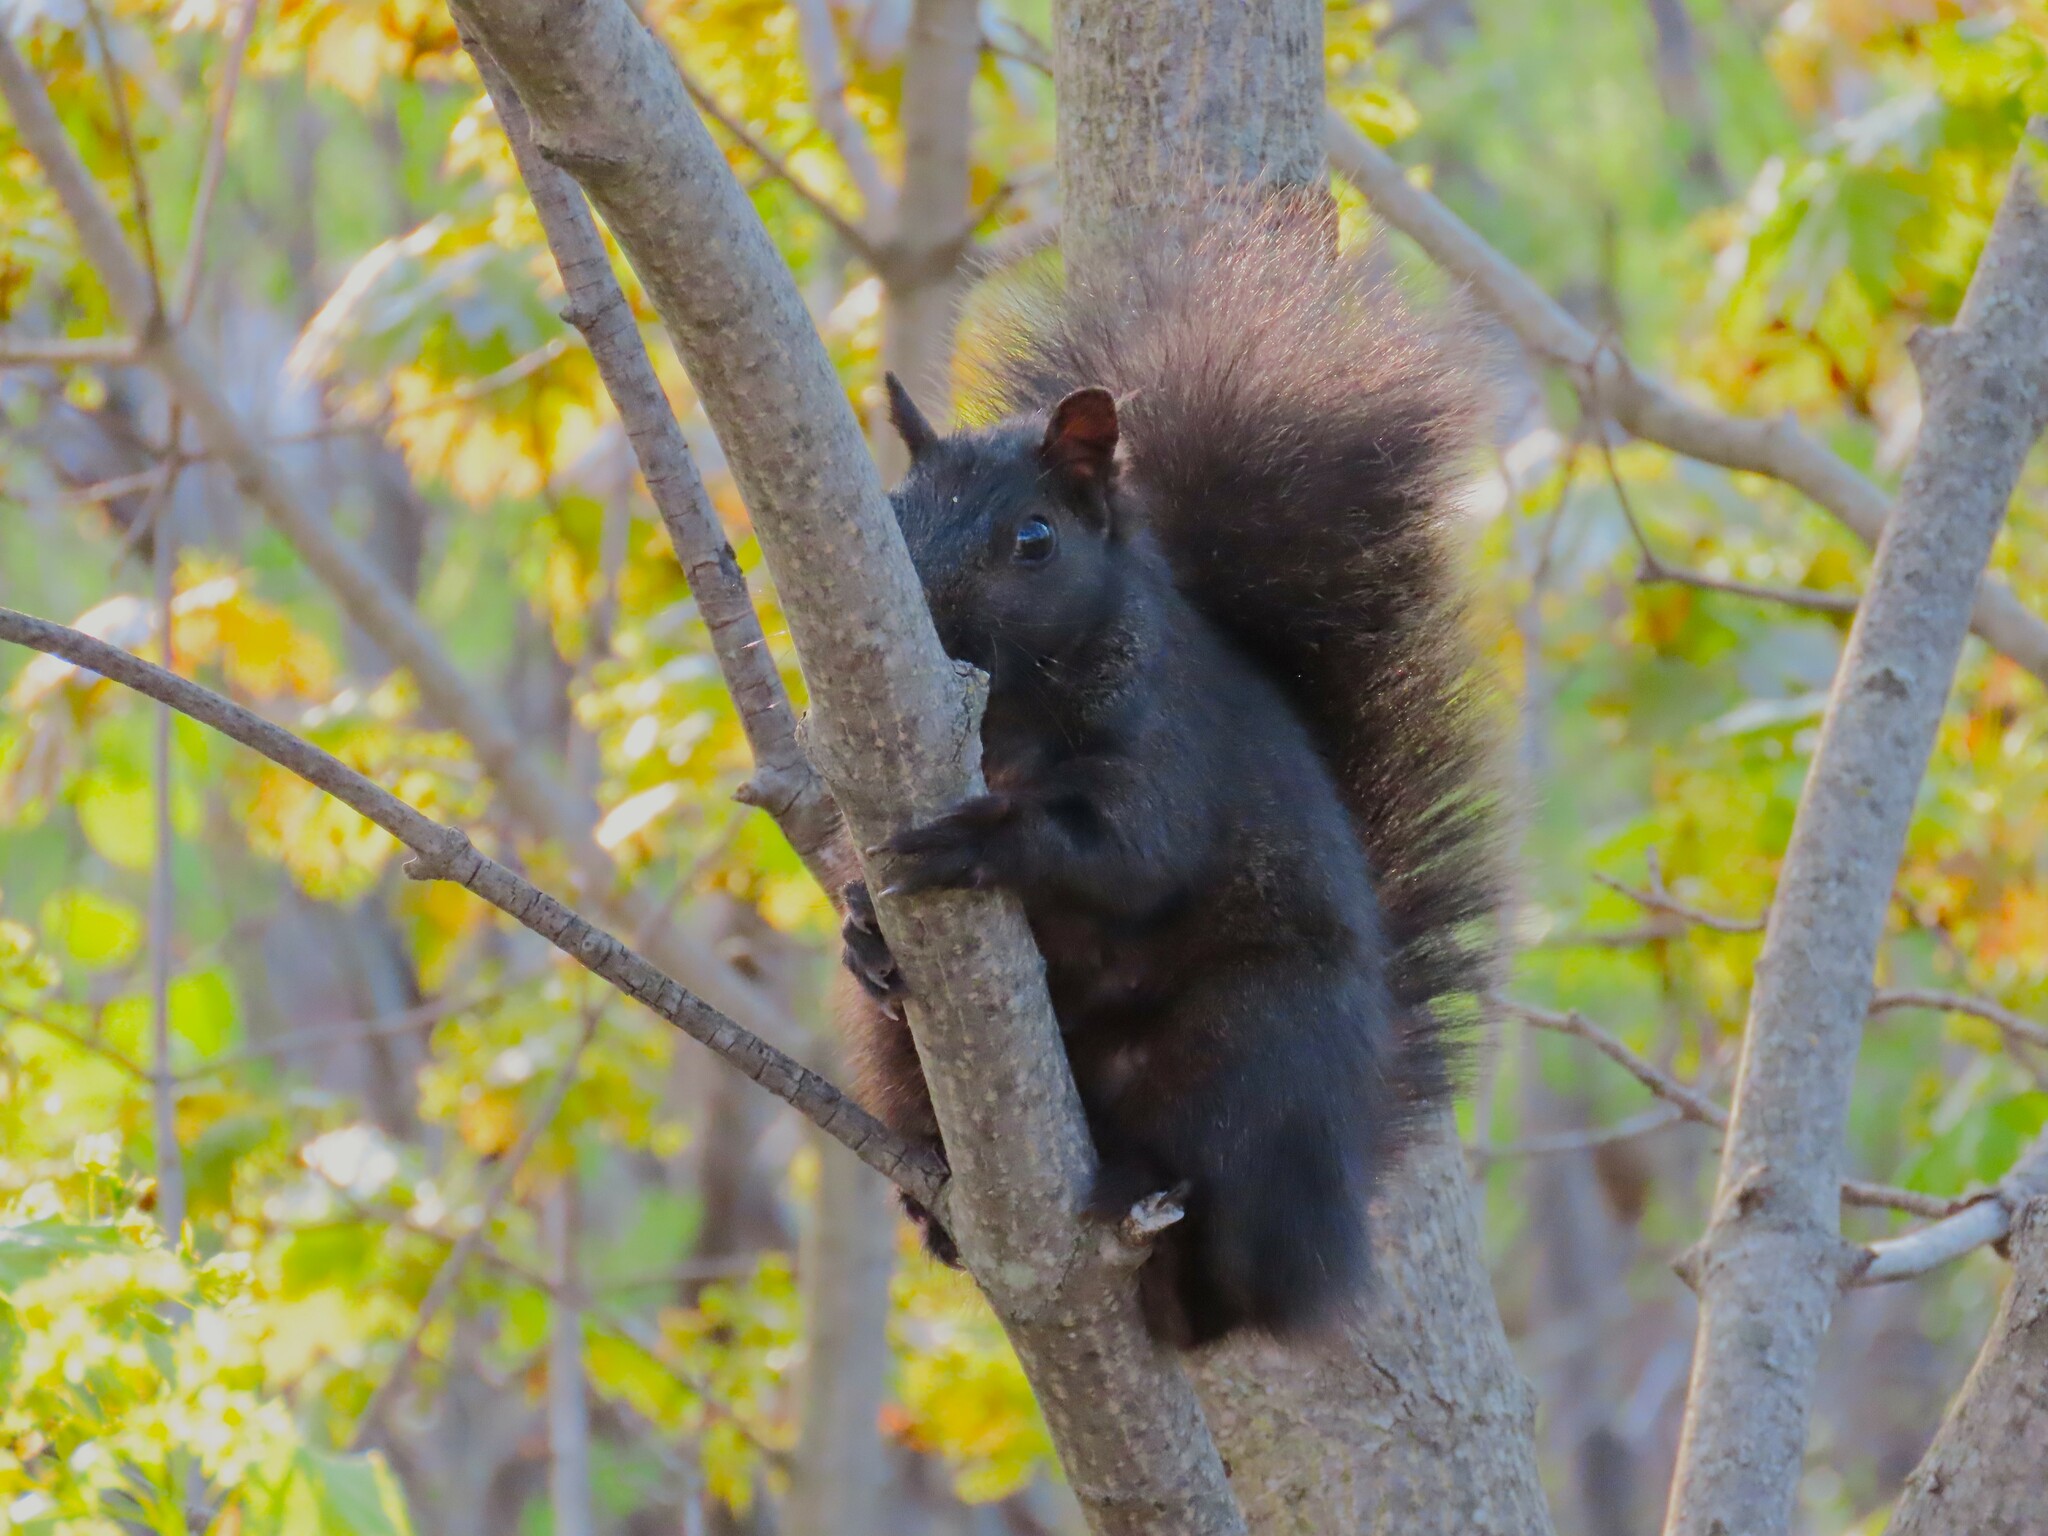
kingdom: Animalia
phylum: Chordata
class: Mammalia
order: Rodentia
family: Sciuridae
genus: Sciurus
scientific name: Sciurus carolinensis
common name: Eastern gray squirrel
